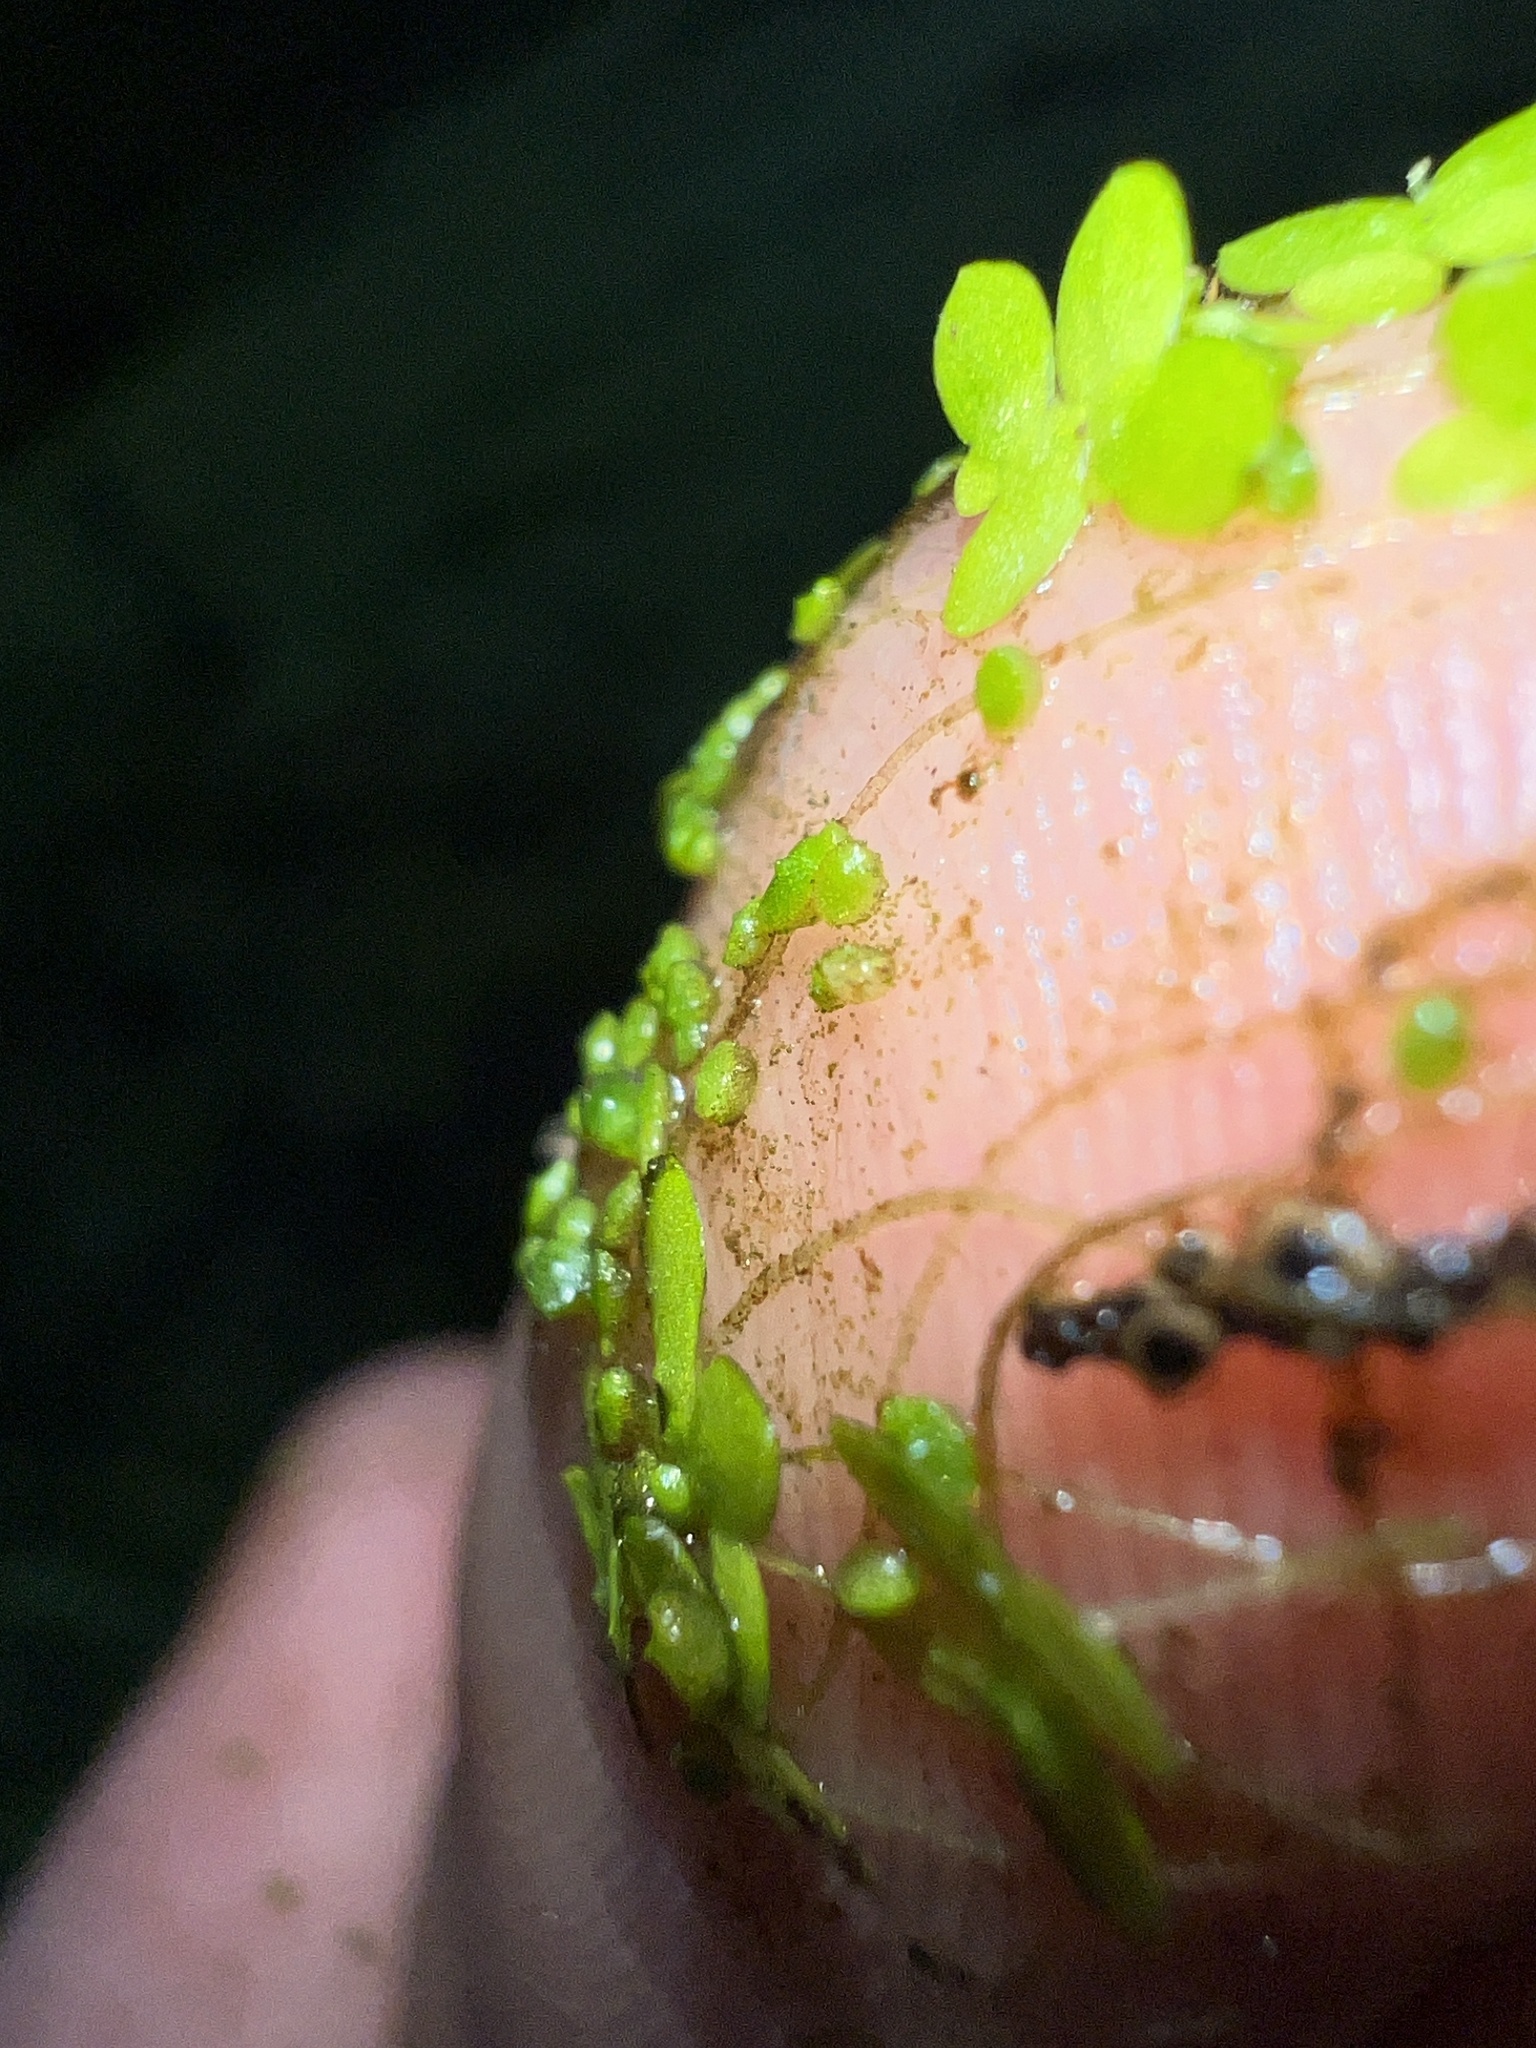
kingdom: Plantae
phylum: Tracheophyta
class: Liliopsida
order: Alismatales
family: Araceae
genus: Wolffia
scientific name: Wolffia brasiliensis
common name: Brazilian watermeal
